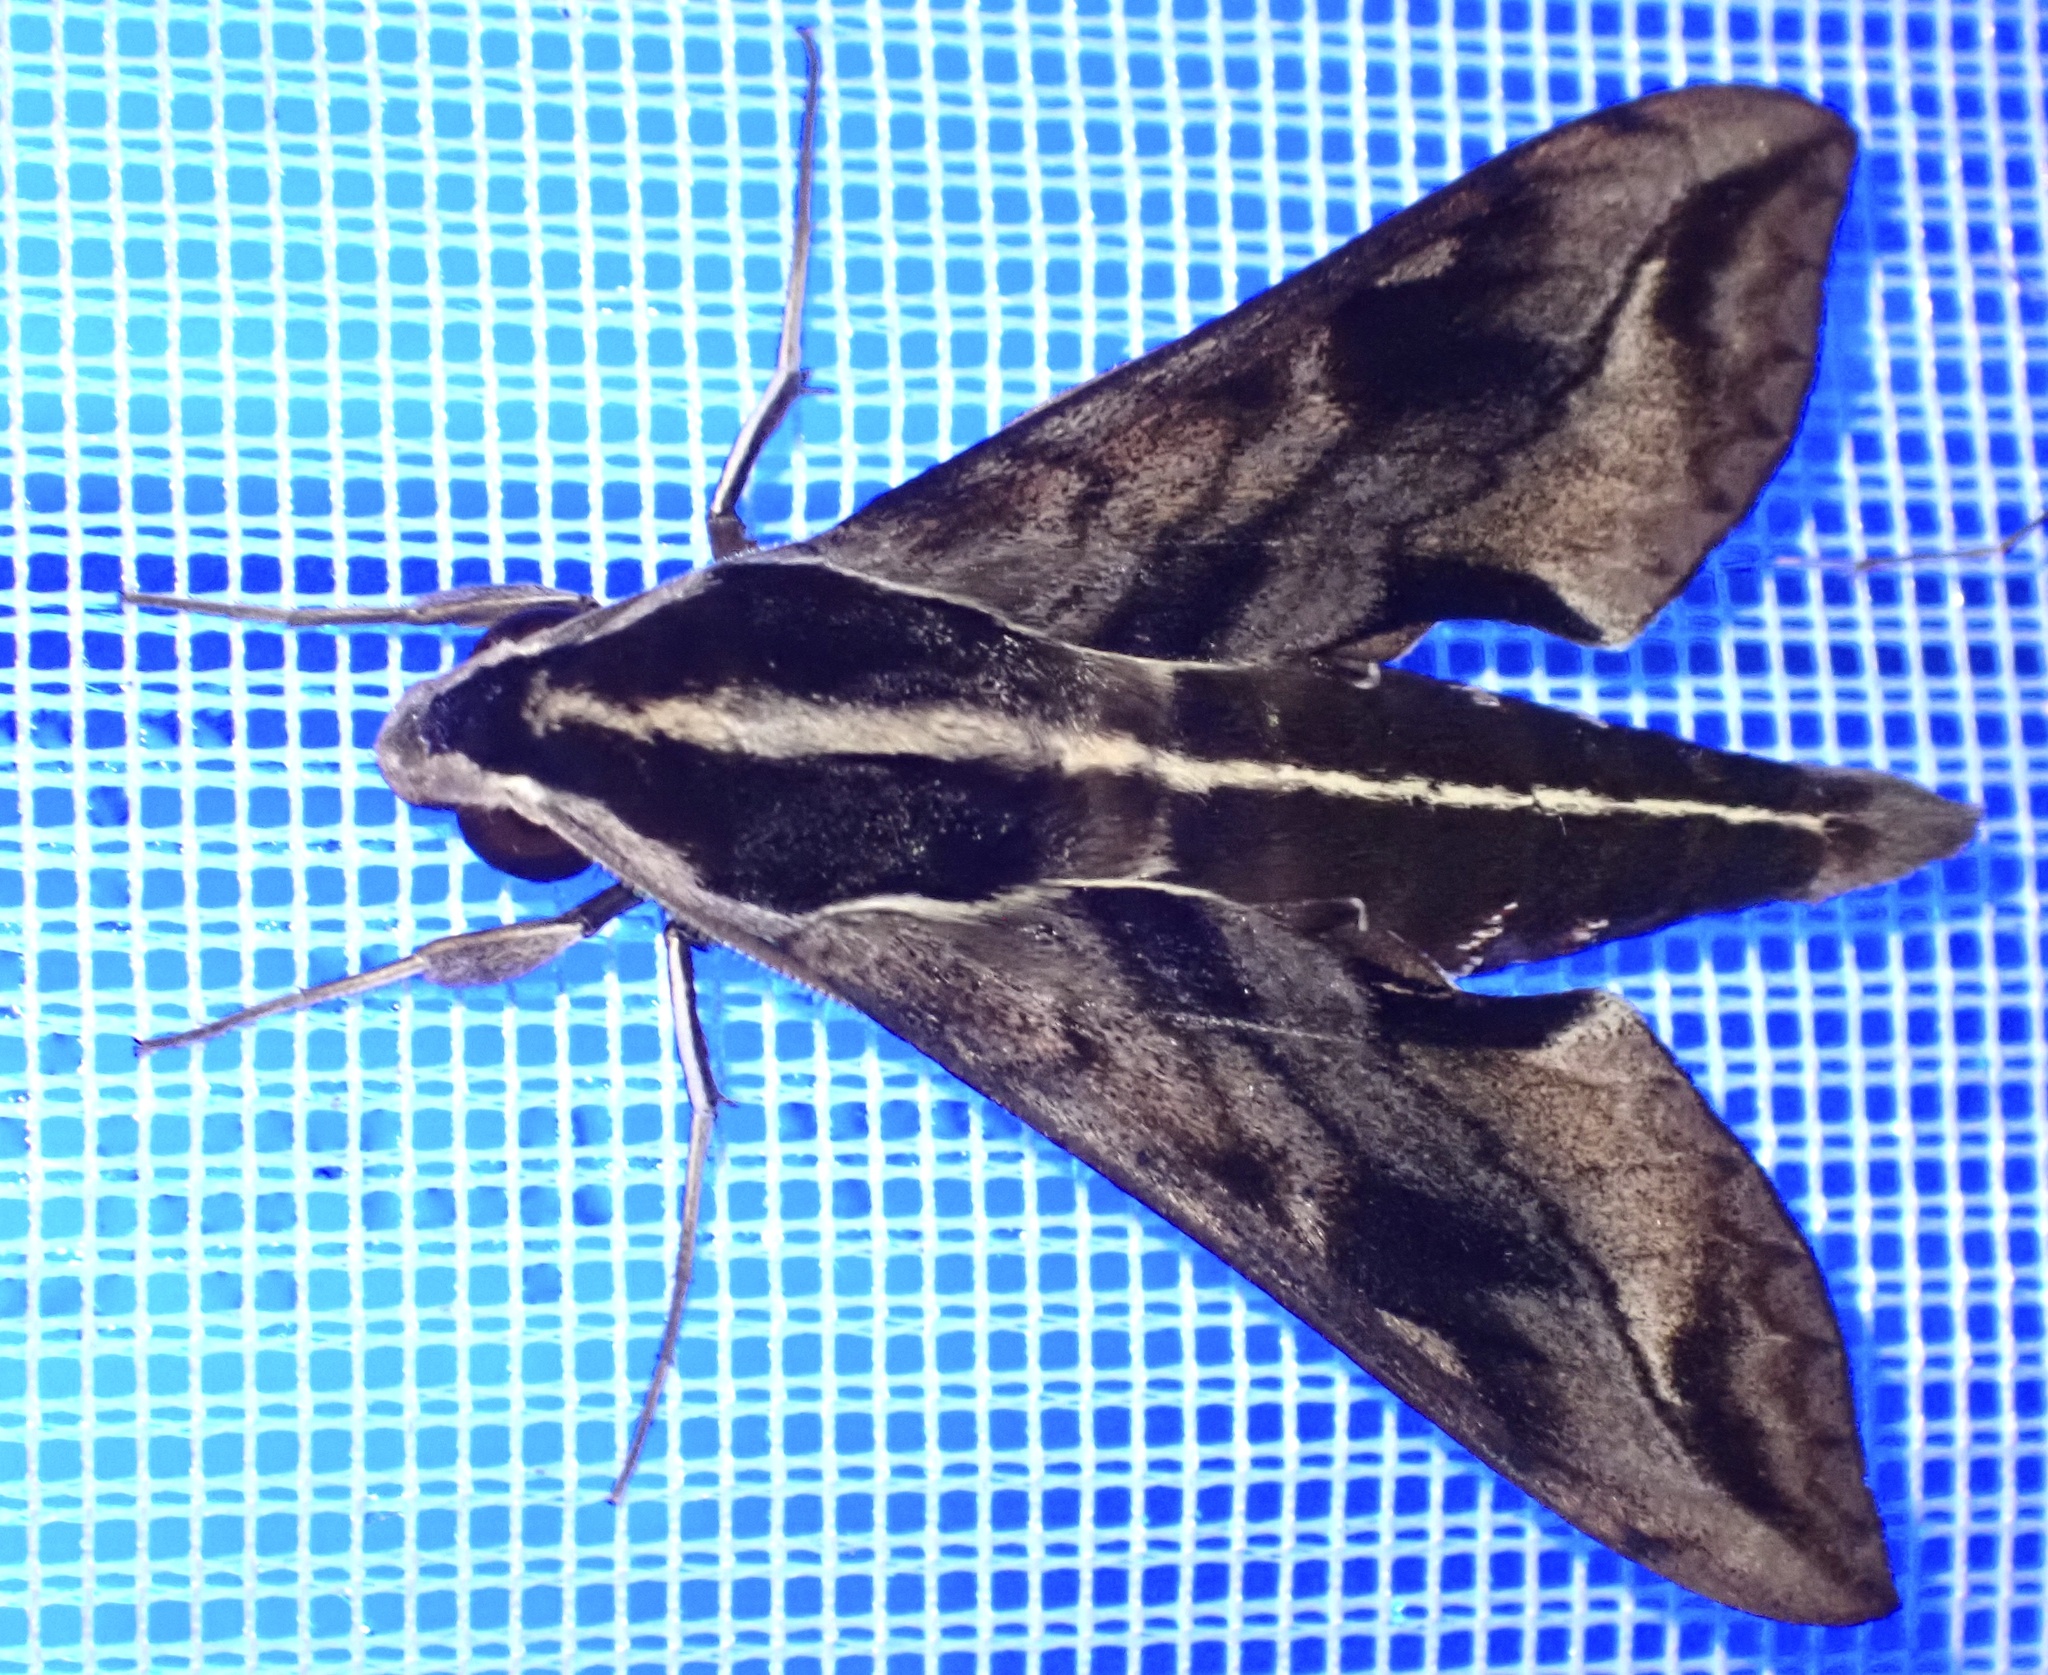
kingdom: Animalia
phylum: Arthropoda
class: Insecta
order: Lepidoptera
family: Sphingidae
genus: Hippotion
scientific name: Hippotion brunnea
